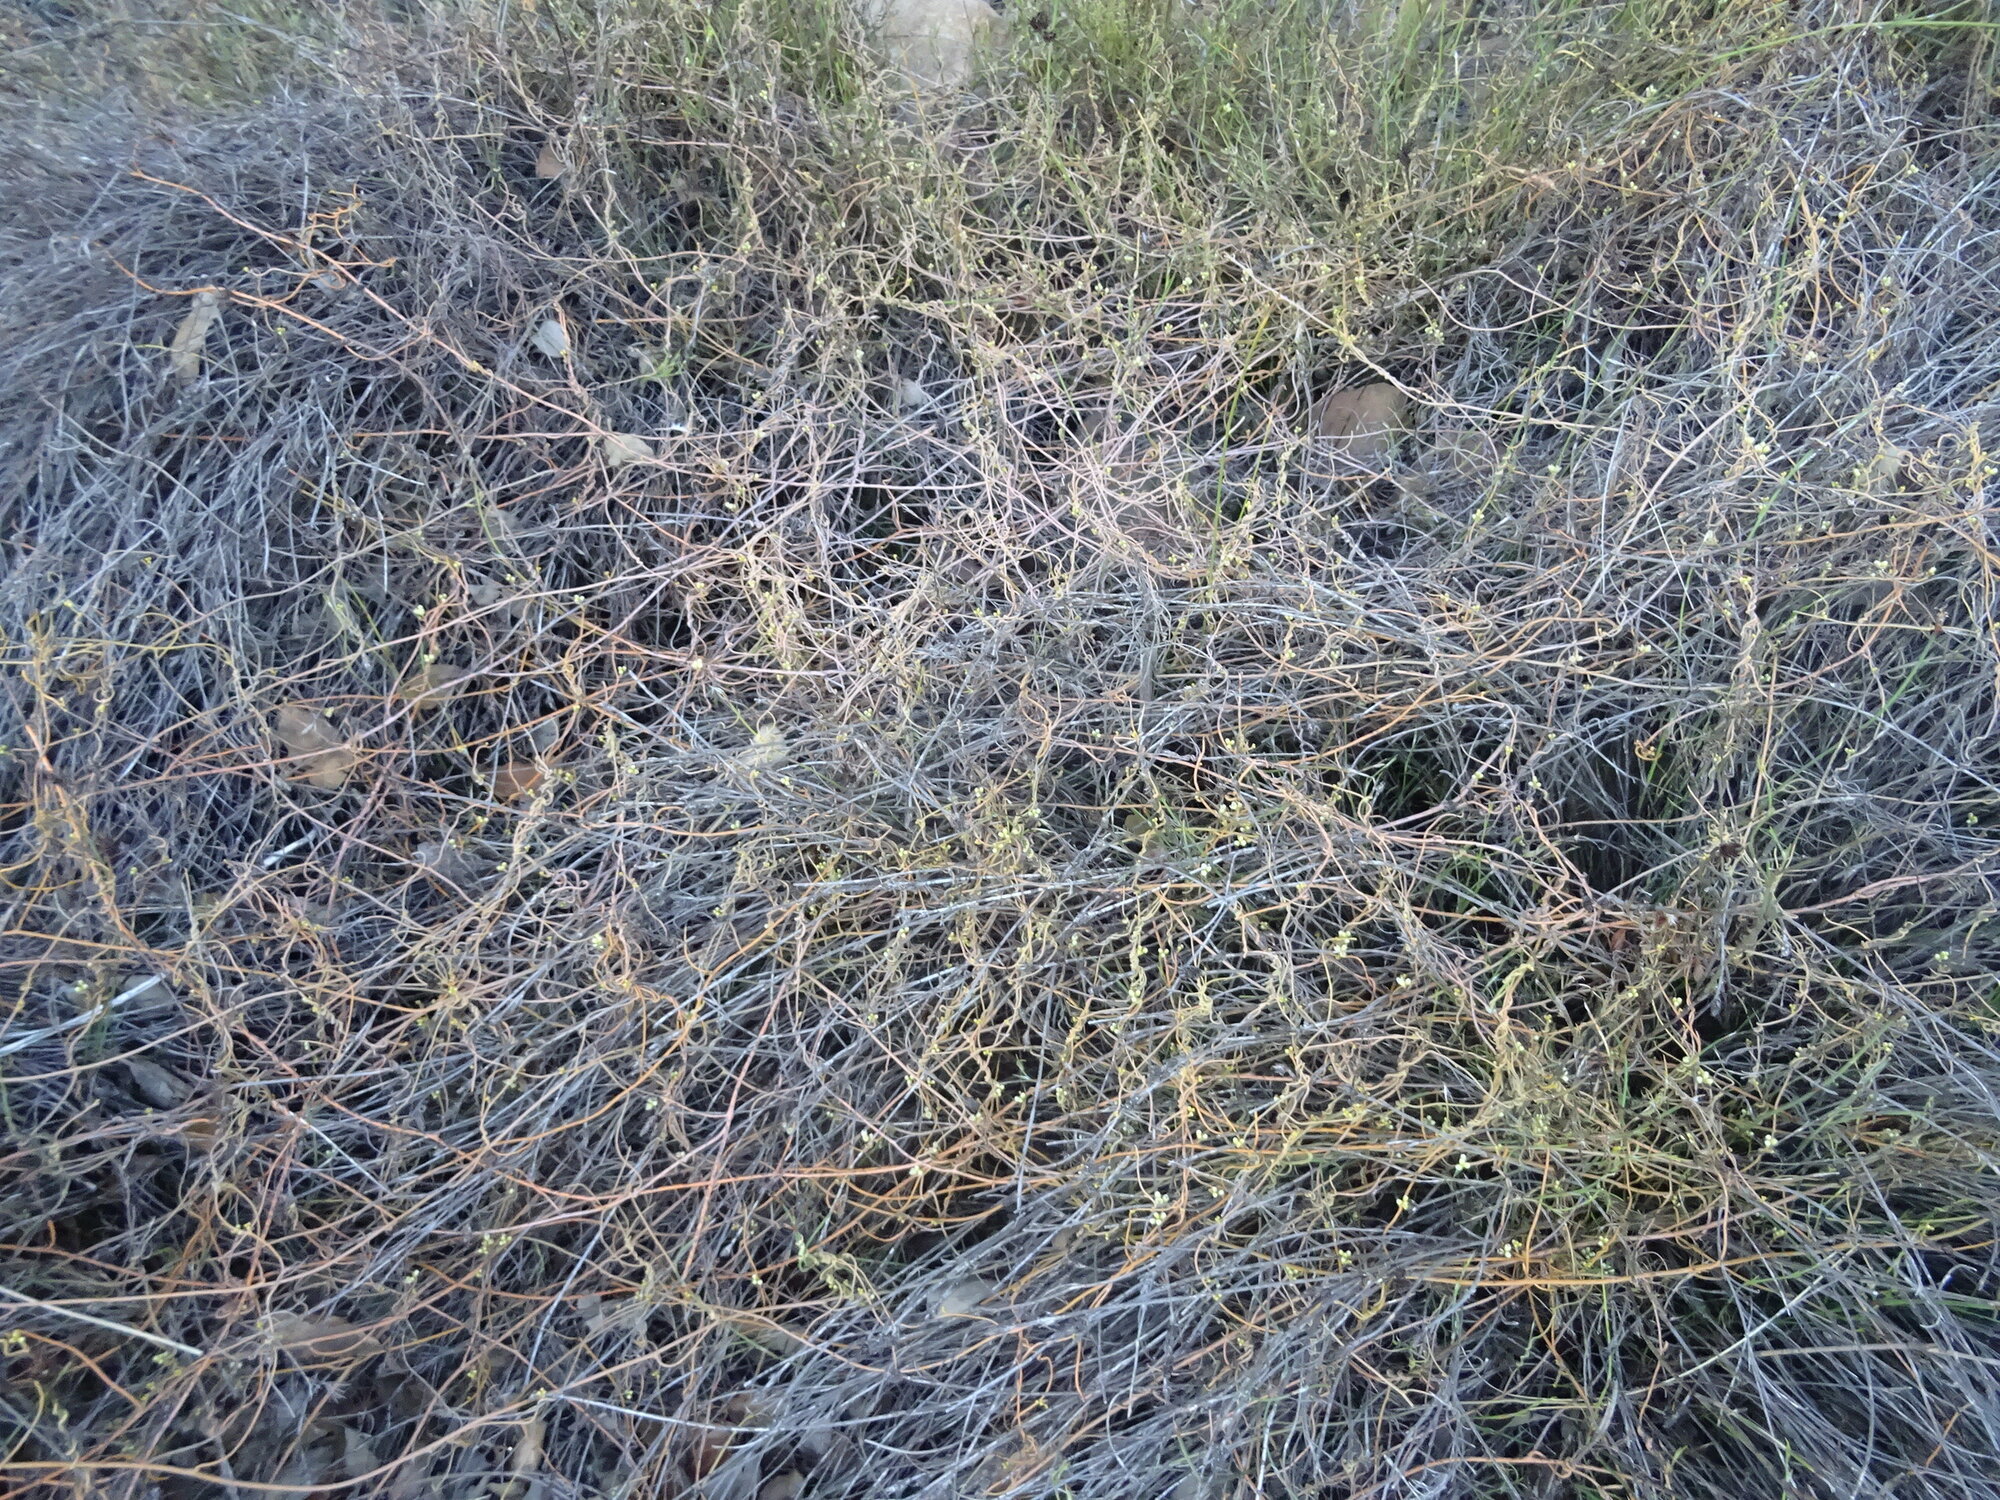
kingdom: Plantae
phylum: Tracheophyta
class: Magnoliopsida
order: Laurales
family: Lauraceae
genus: Cassytha
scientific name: Cassytha ciliolata
